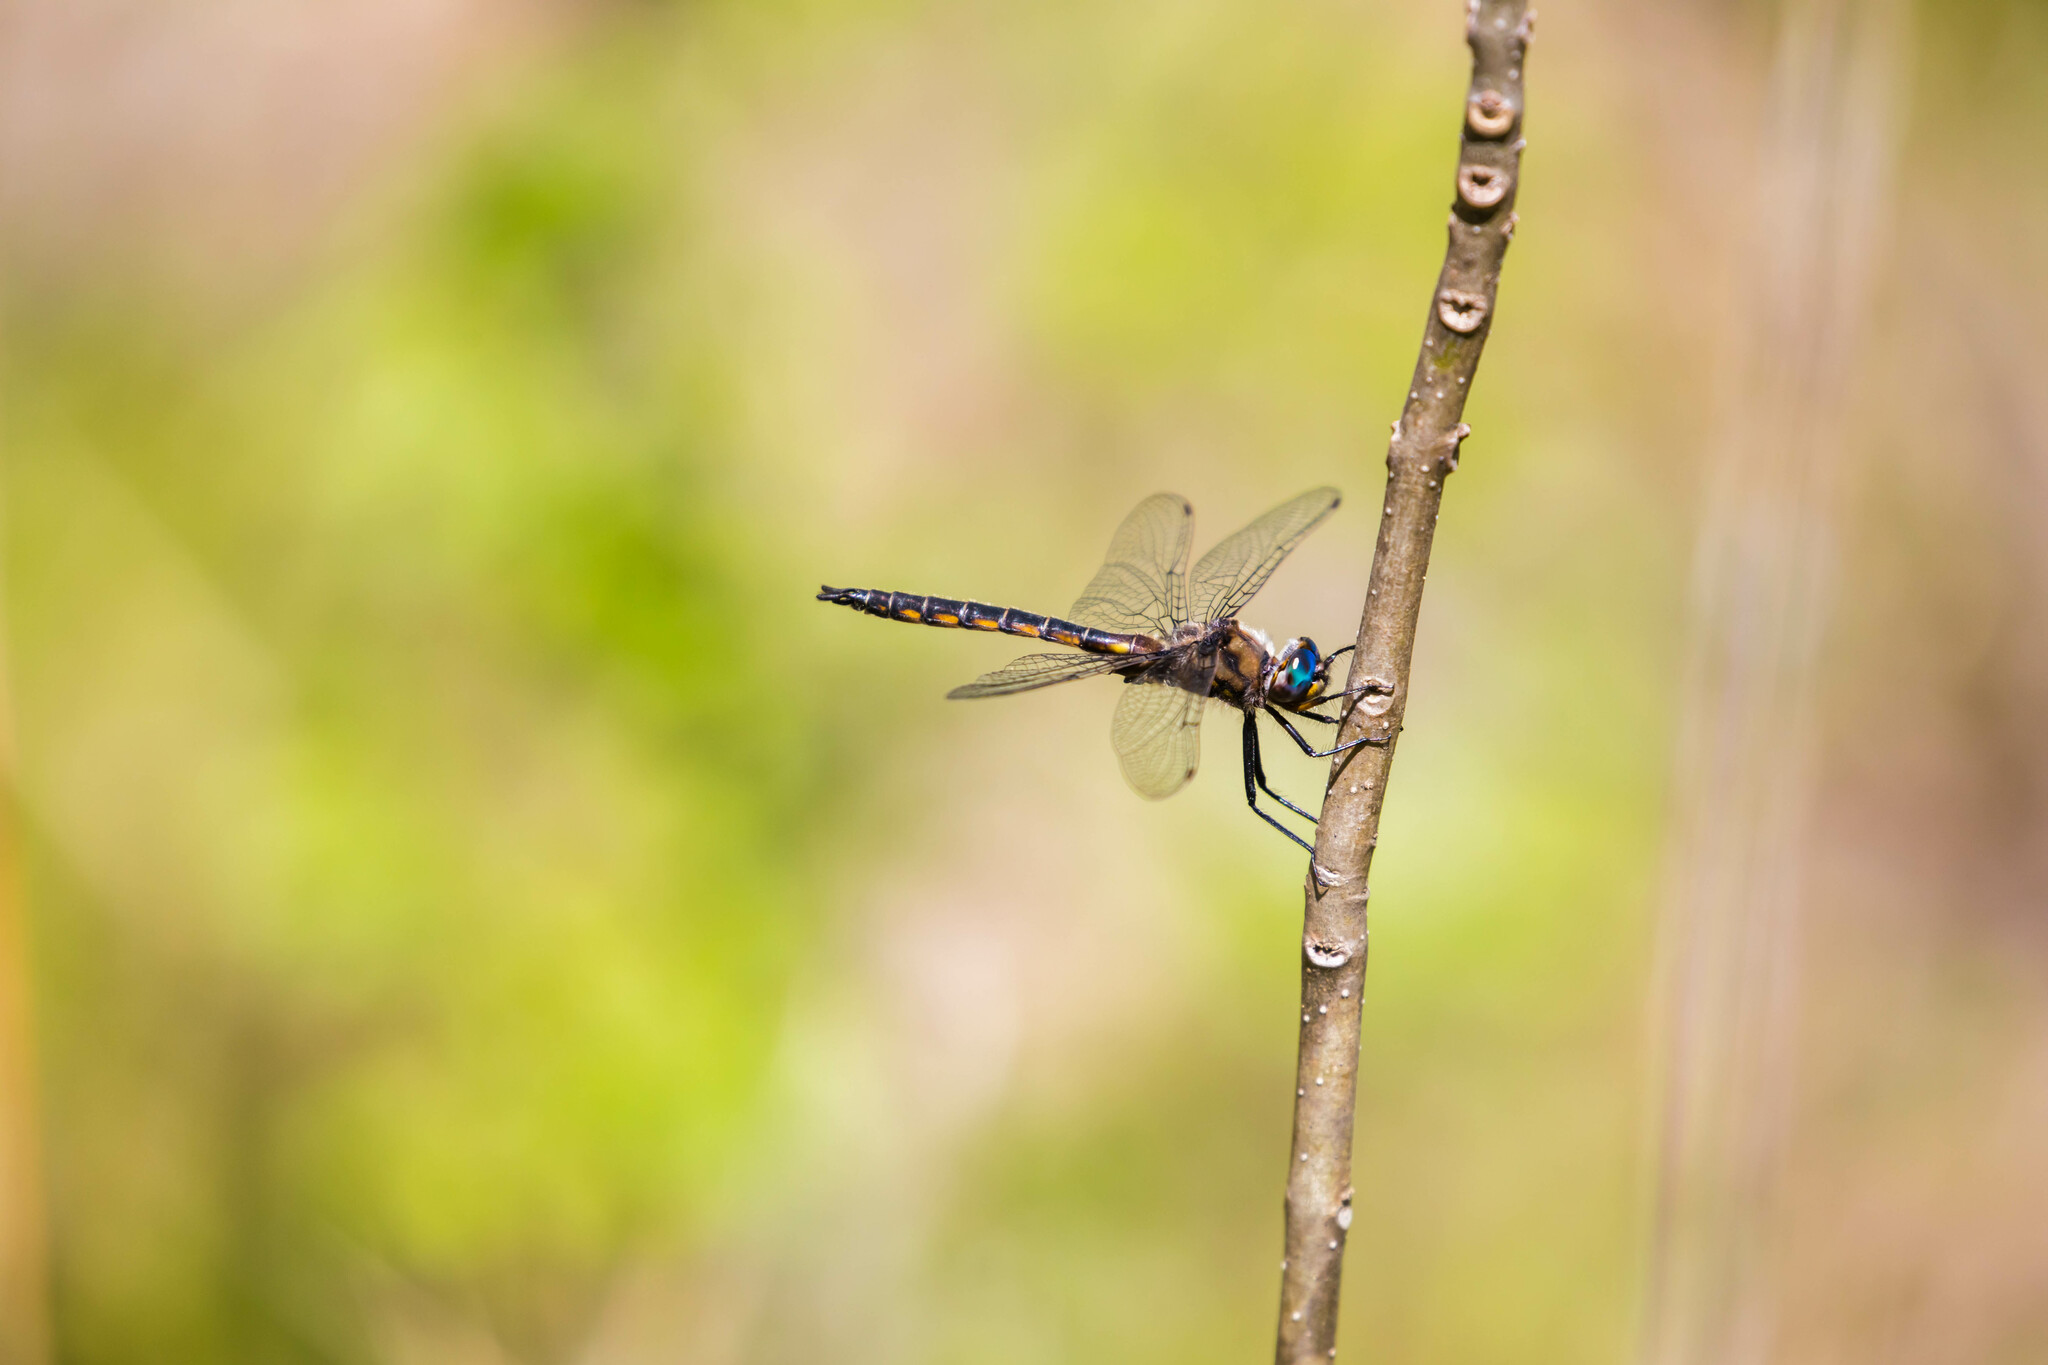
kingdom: Animalia
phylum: Arthropoda
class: Insecta
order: Odonata
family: Corduliidae
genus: Epitheca
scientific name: Epitheca cynosura
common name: Common baskettail
